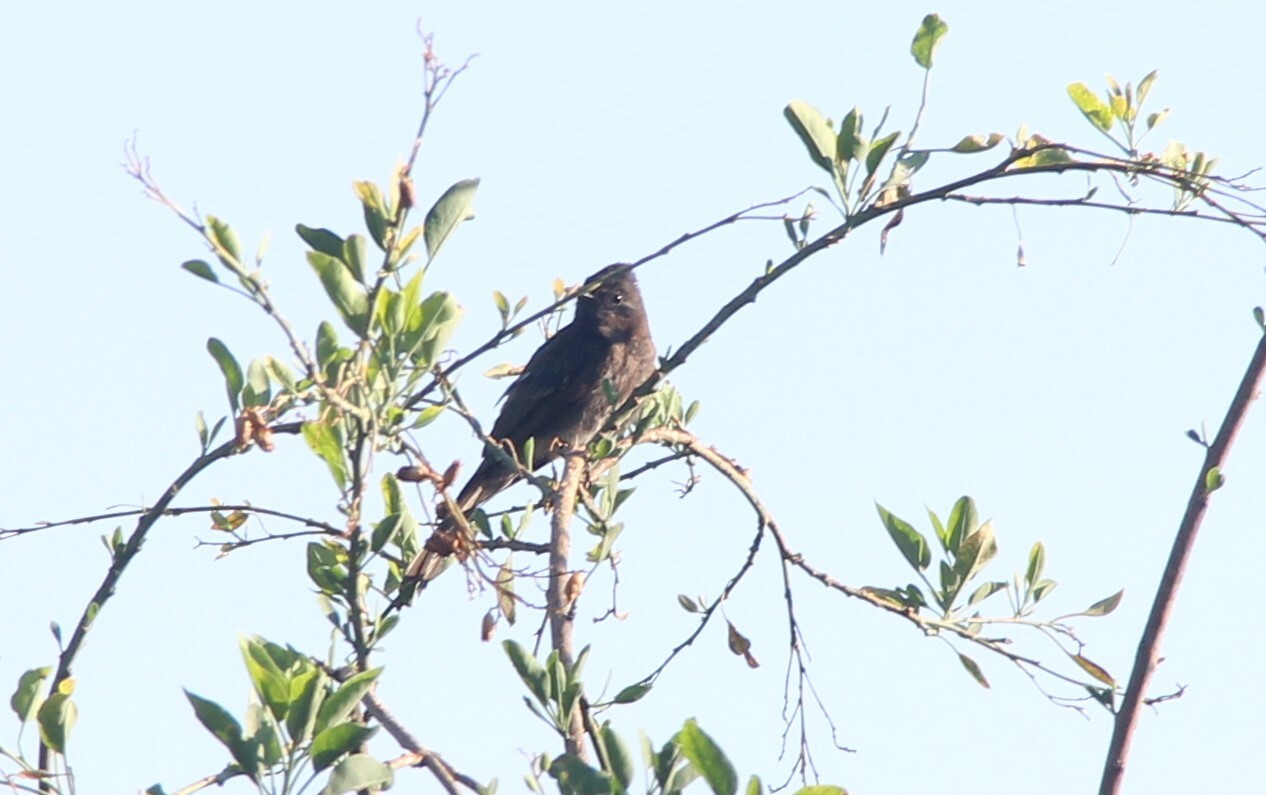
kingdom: Animalia
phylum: Chordata
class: Aves
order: Passeriformes
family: Tyrannidae
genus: Sayornis
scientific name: Sayornis nigricans
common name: Black phoebe
